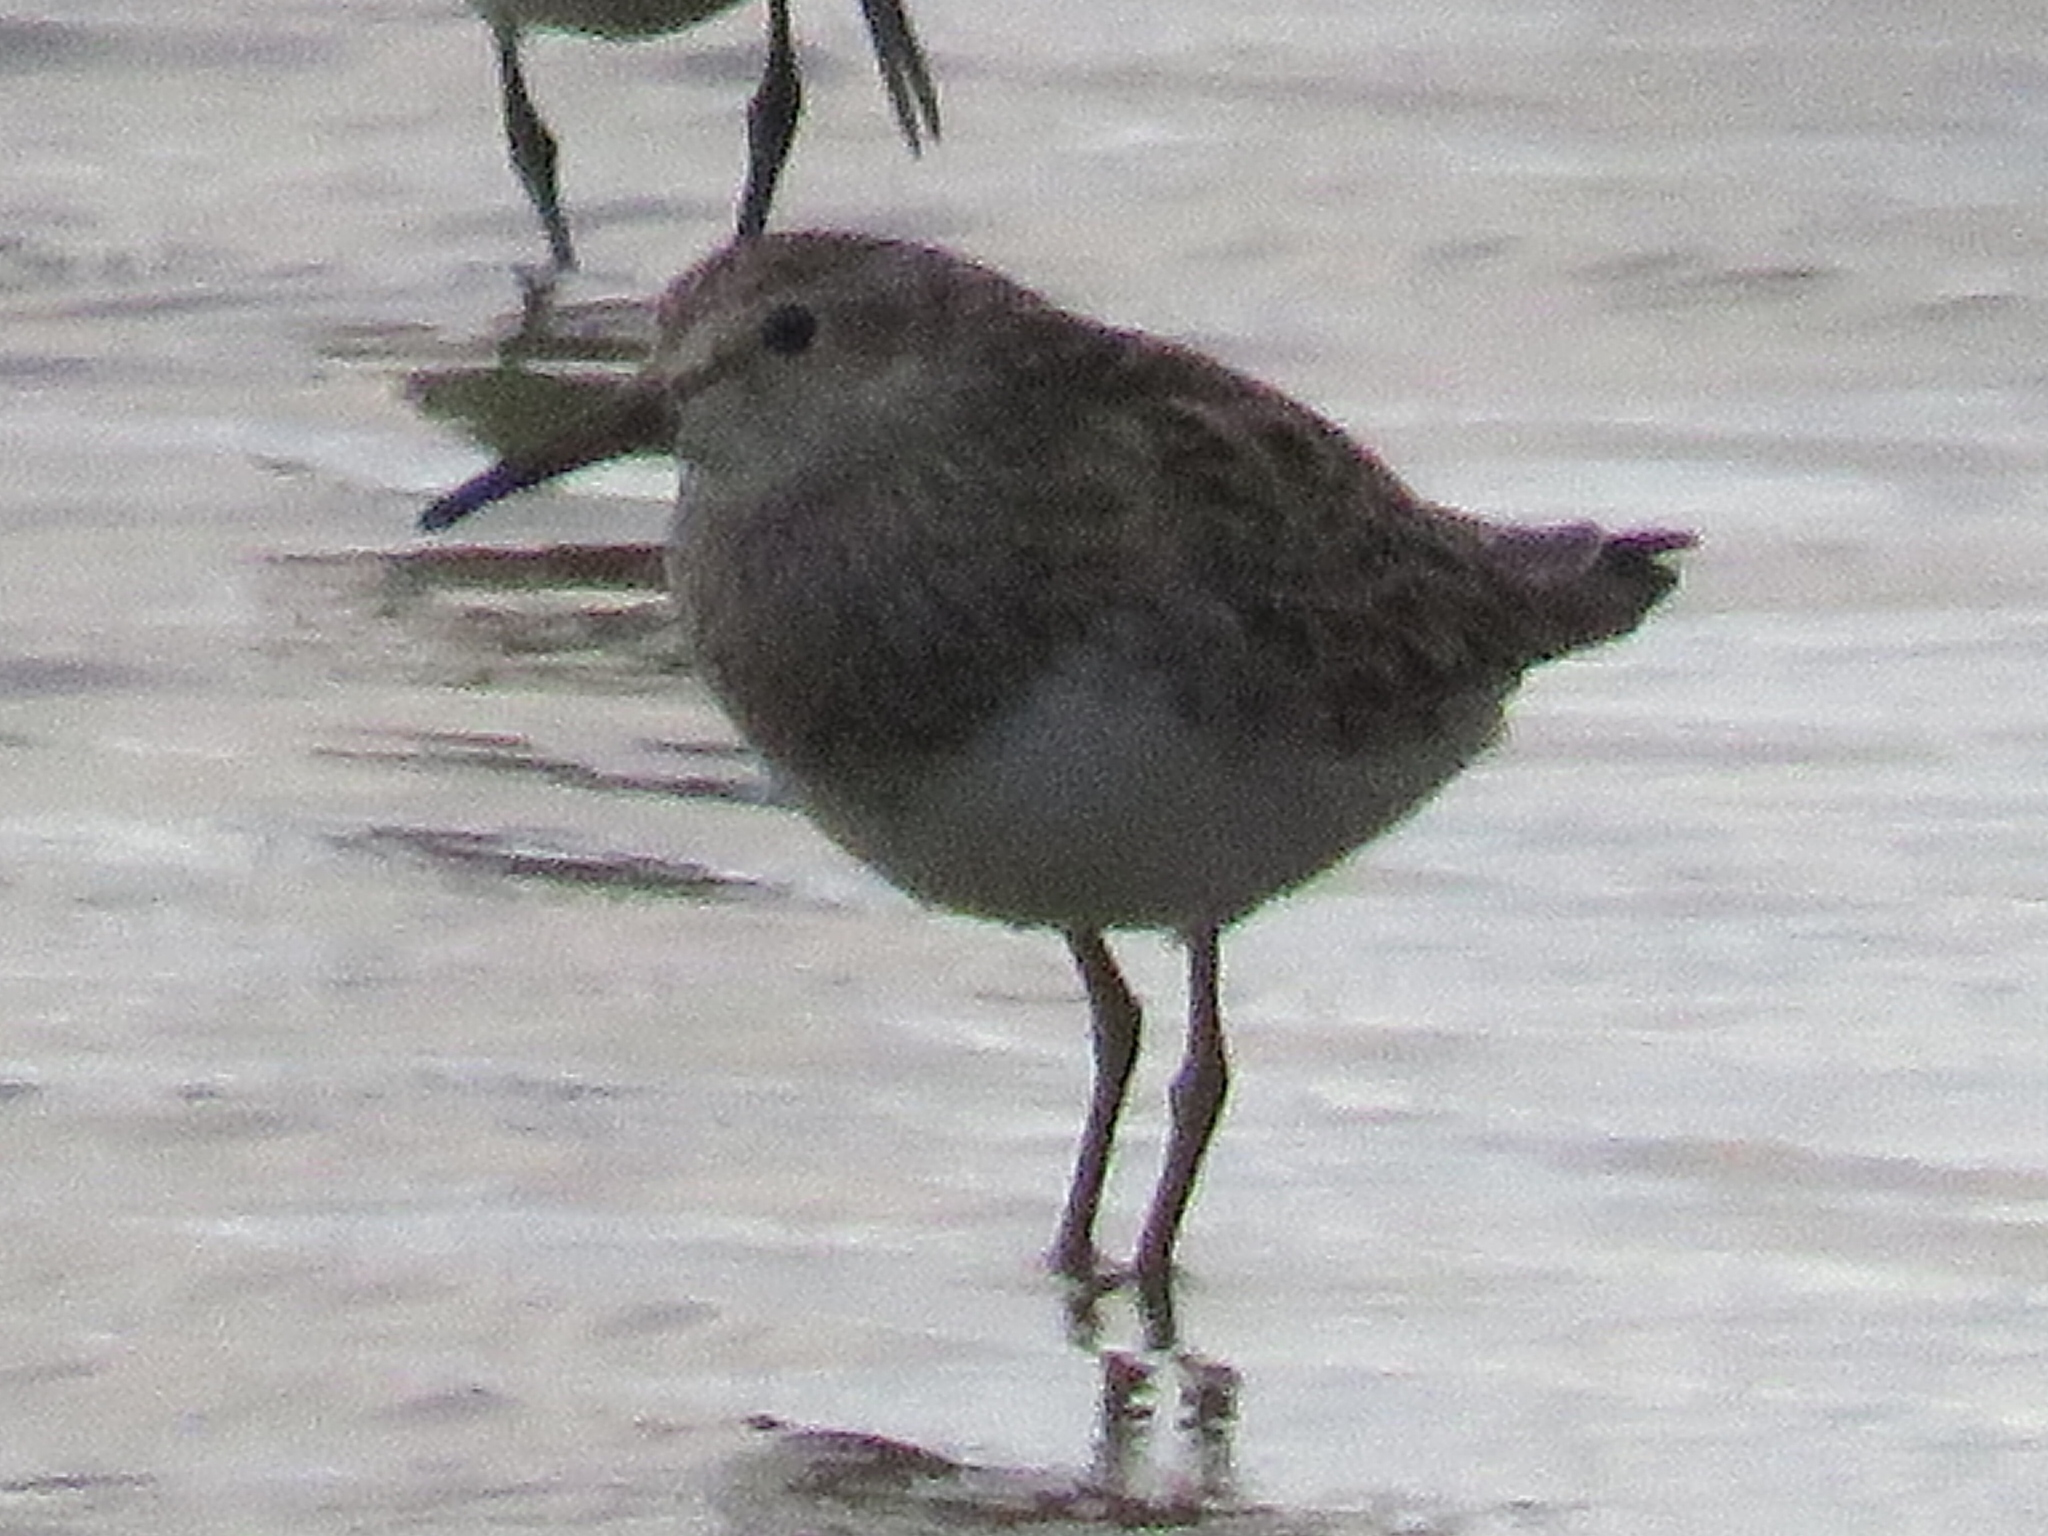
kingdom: Animalia
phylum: Chordata
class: Aves
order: Charadriiformes
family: Scolopacidae
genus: Calidris
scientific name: Calidris melanotos
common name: Pectoral sandpiper
